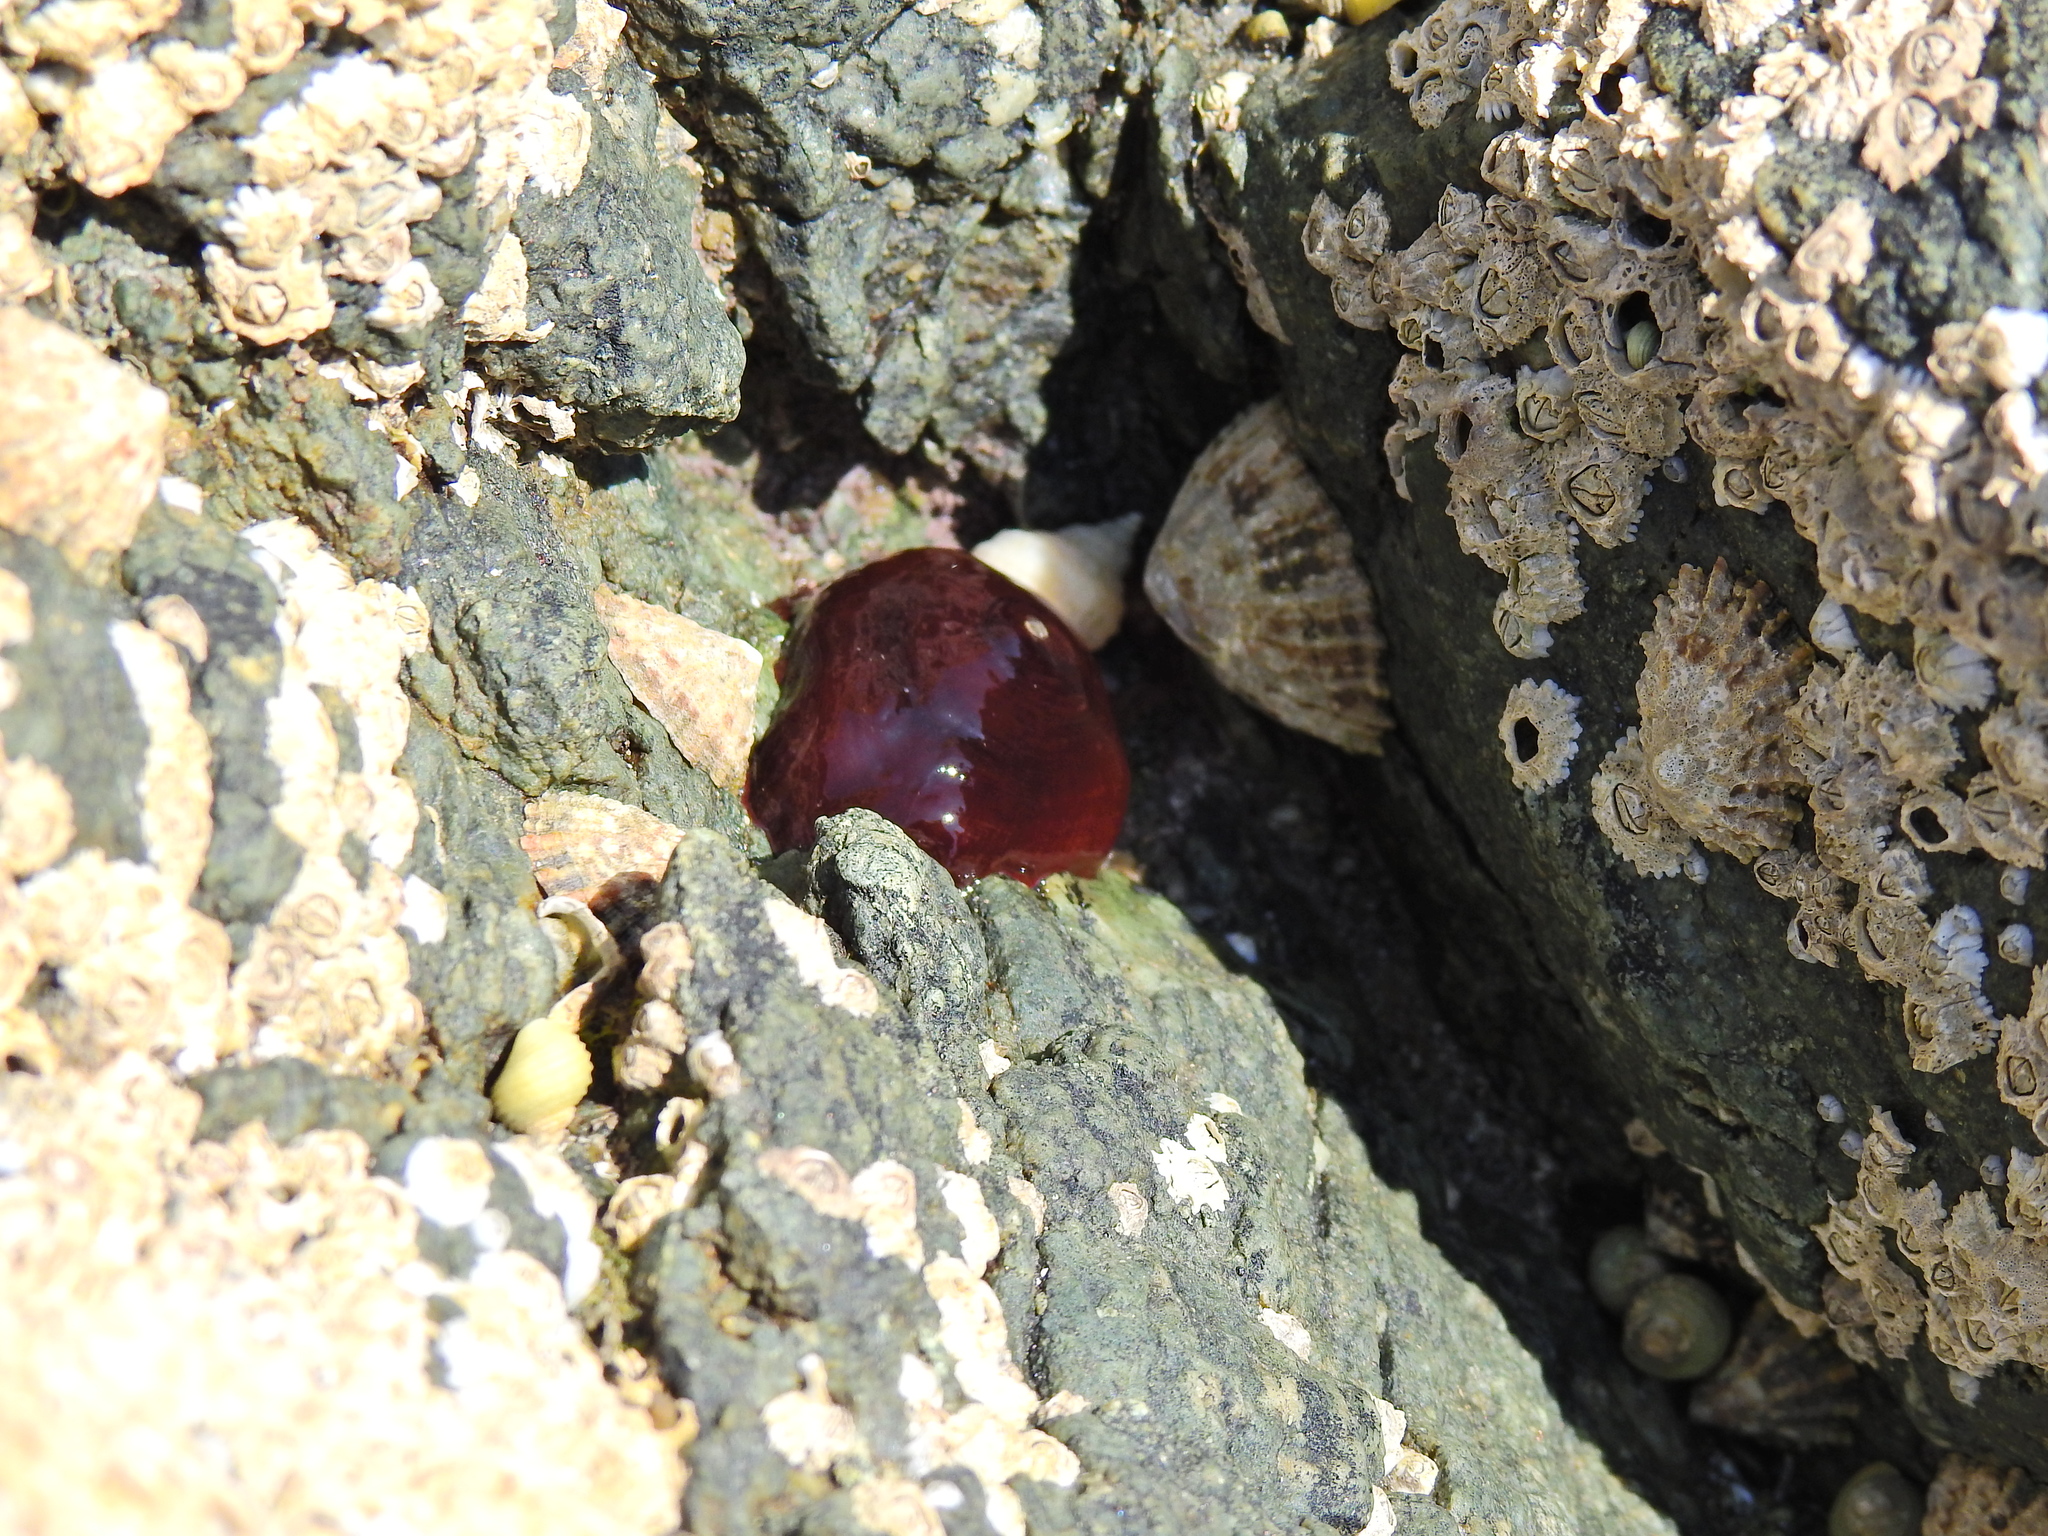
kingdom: Animalia
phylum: Cnidaria
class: Anthozoa
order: Actiniaria
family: Actiniidae
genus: Actinia
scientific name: Actinia equina
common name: Beadlet anemone
